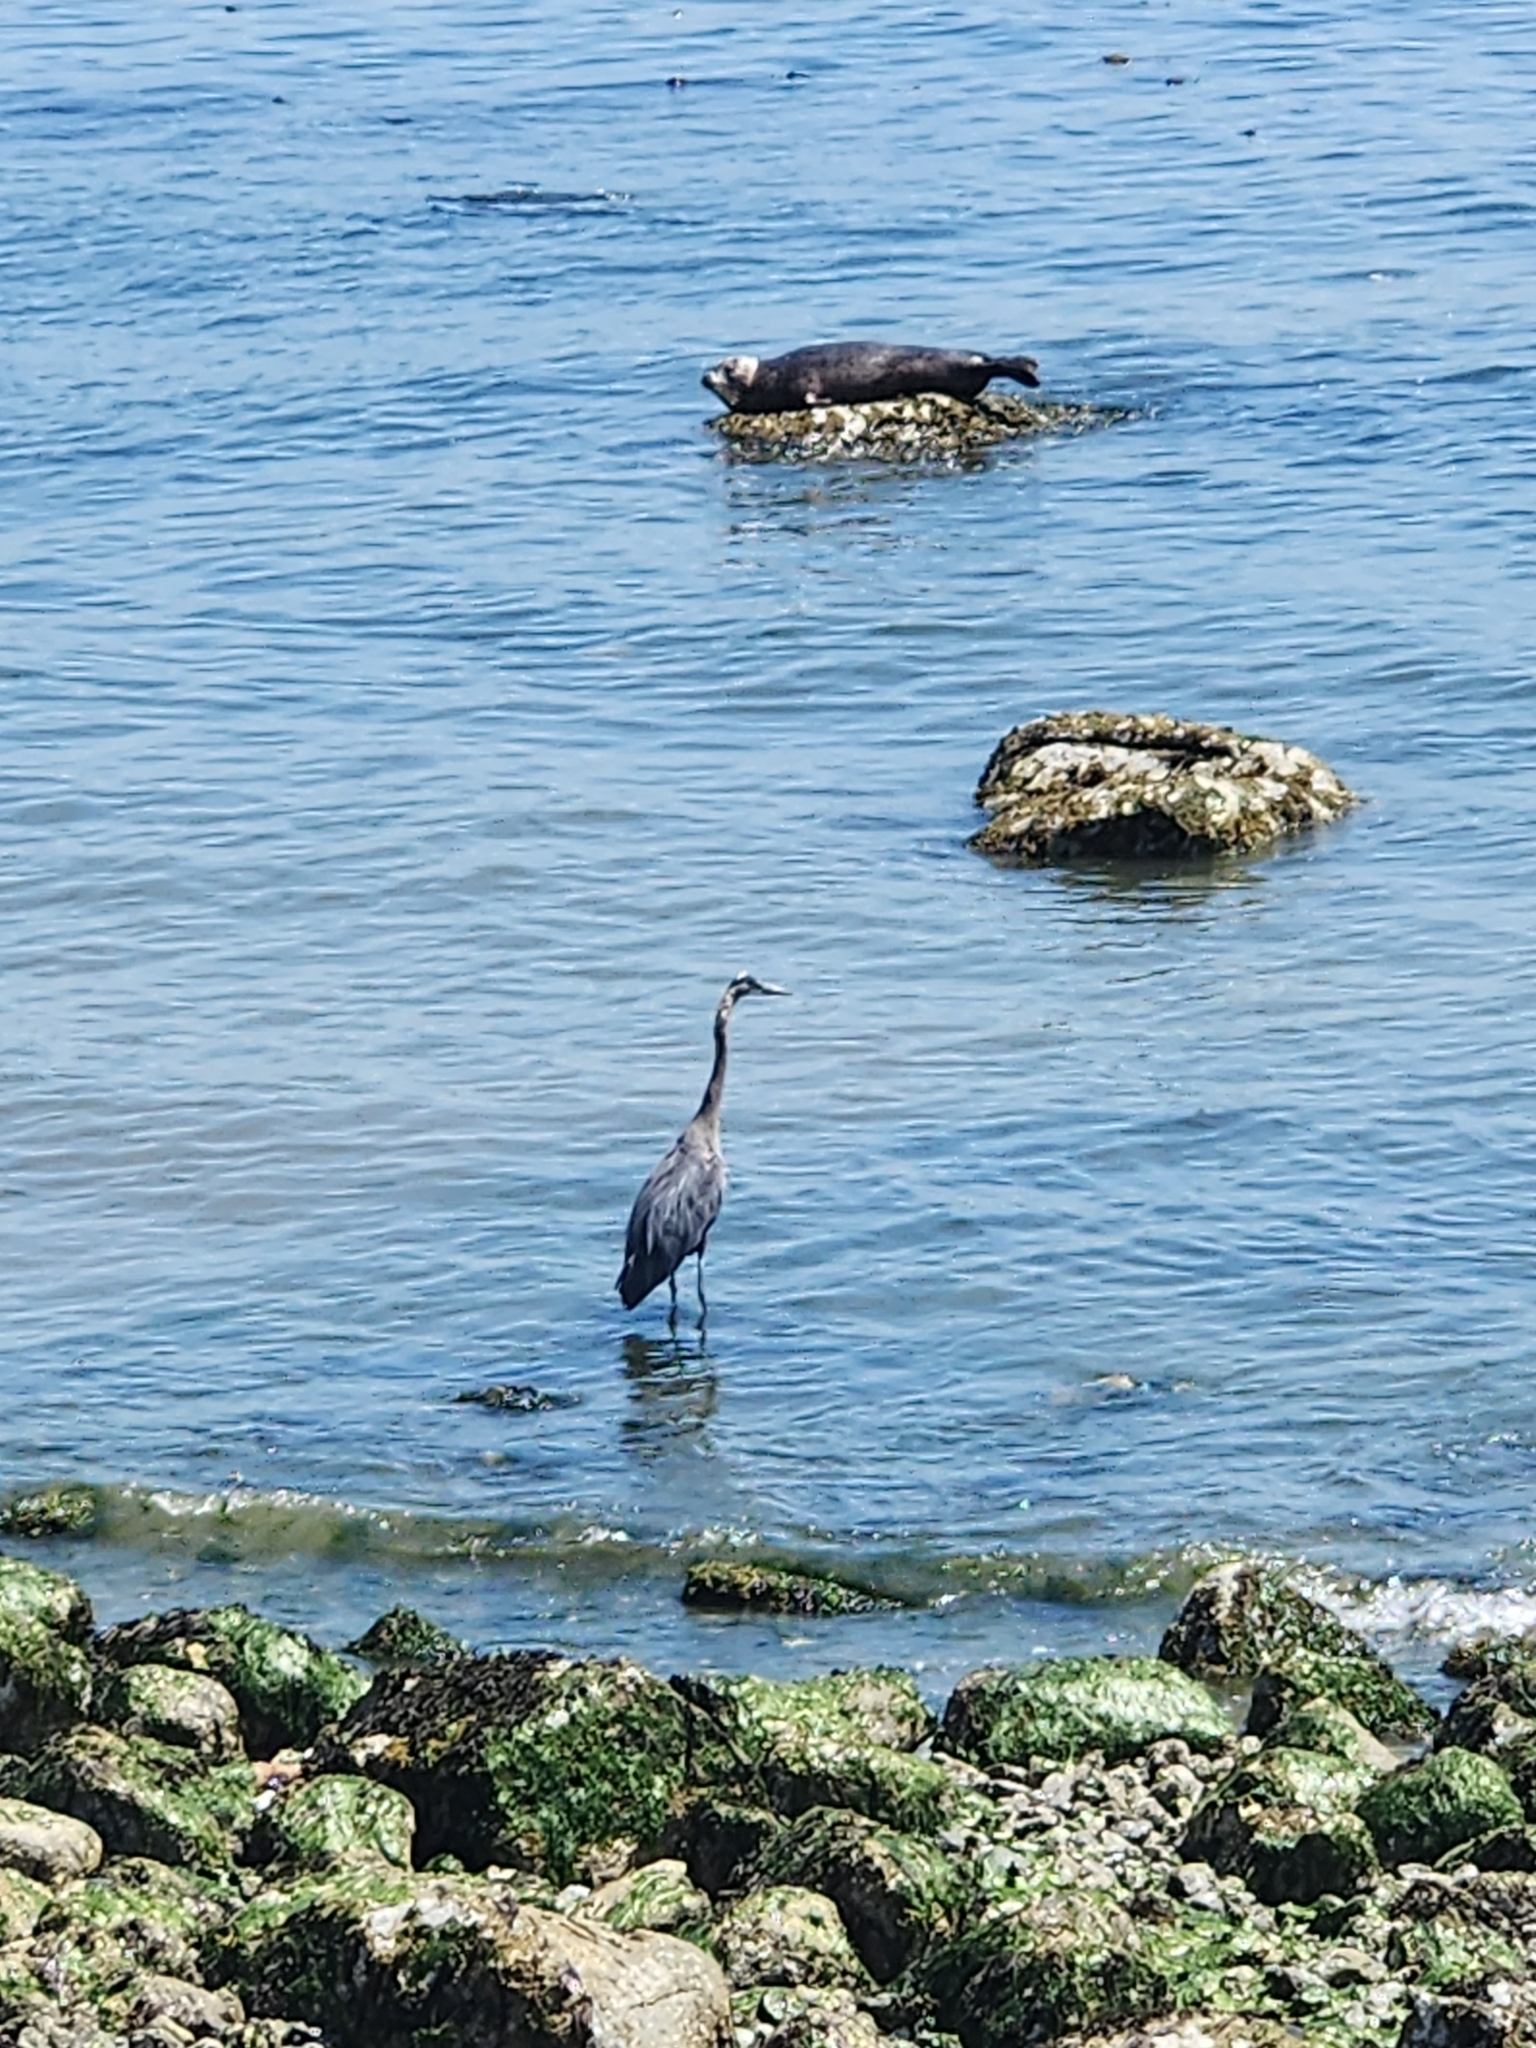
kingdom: Animalia
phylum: Chordata
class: Aves
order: Pelecaniformes
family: Ardeidae
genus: Ardea
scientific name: Ardea herodias
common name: Great blue heron
